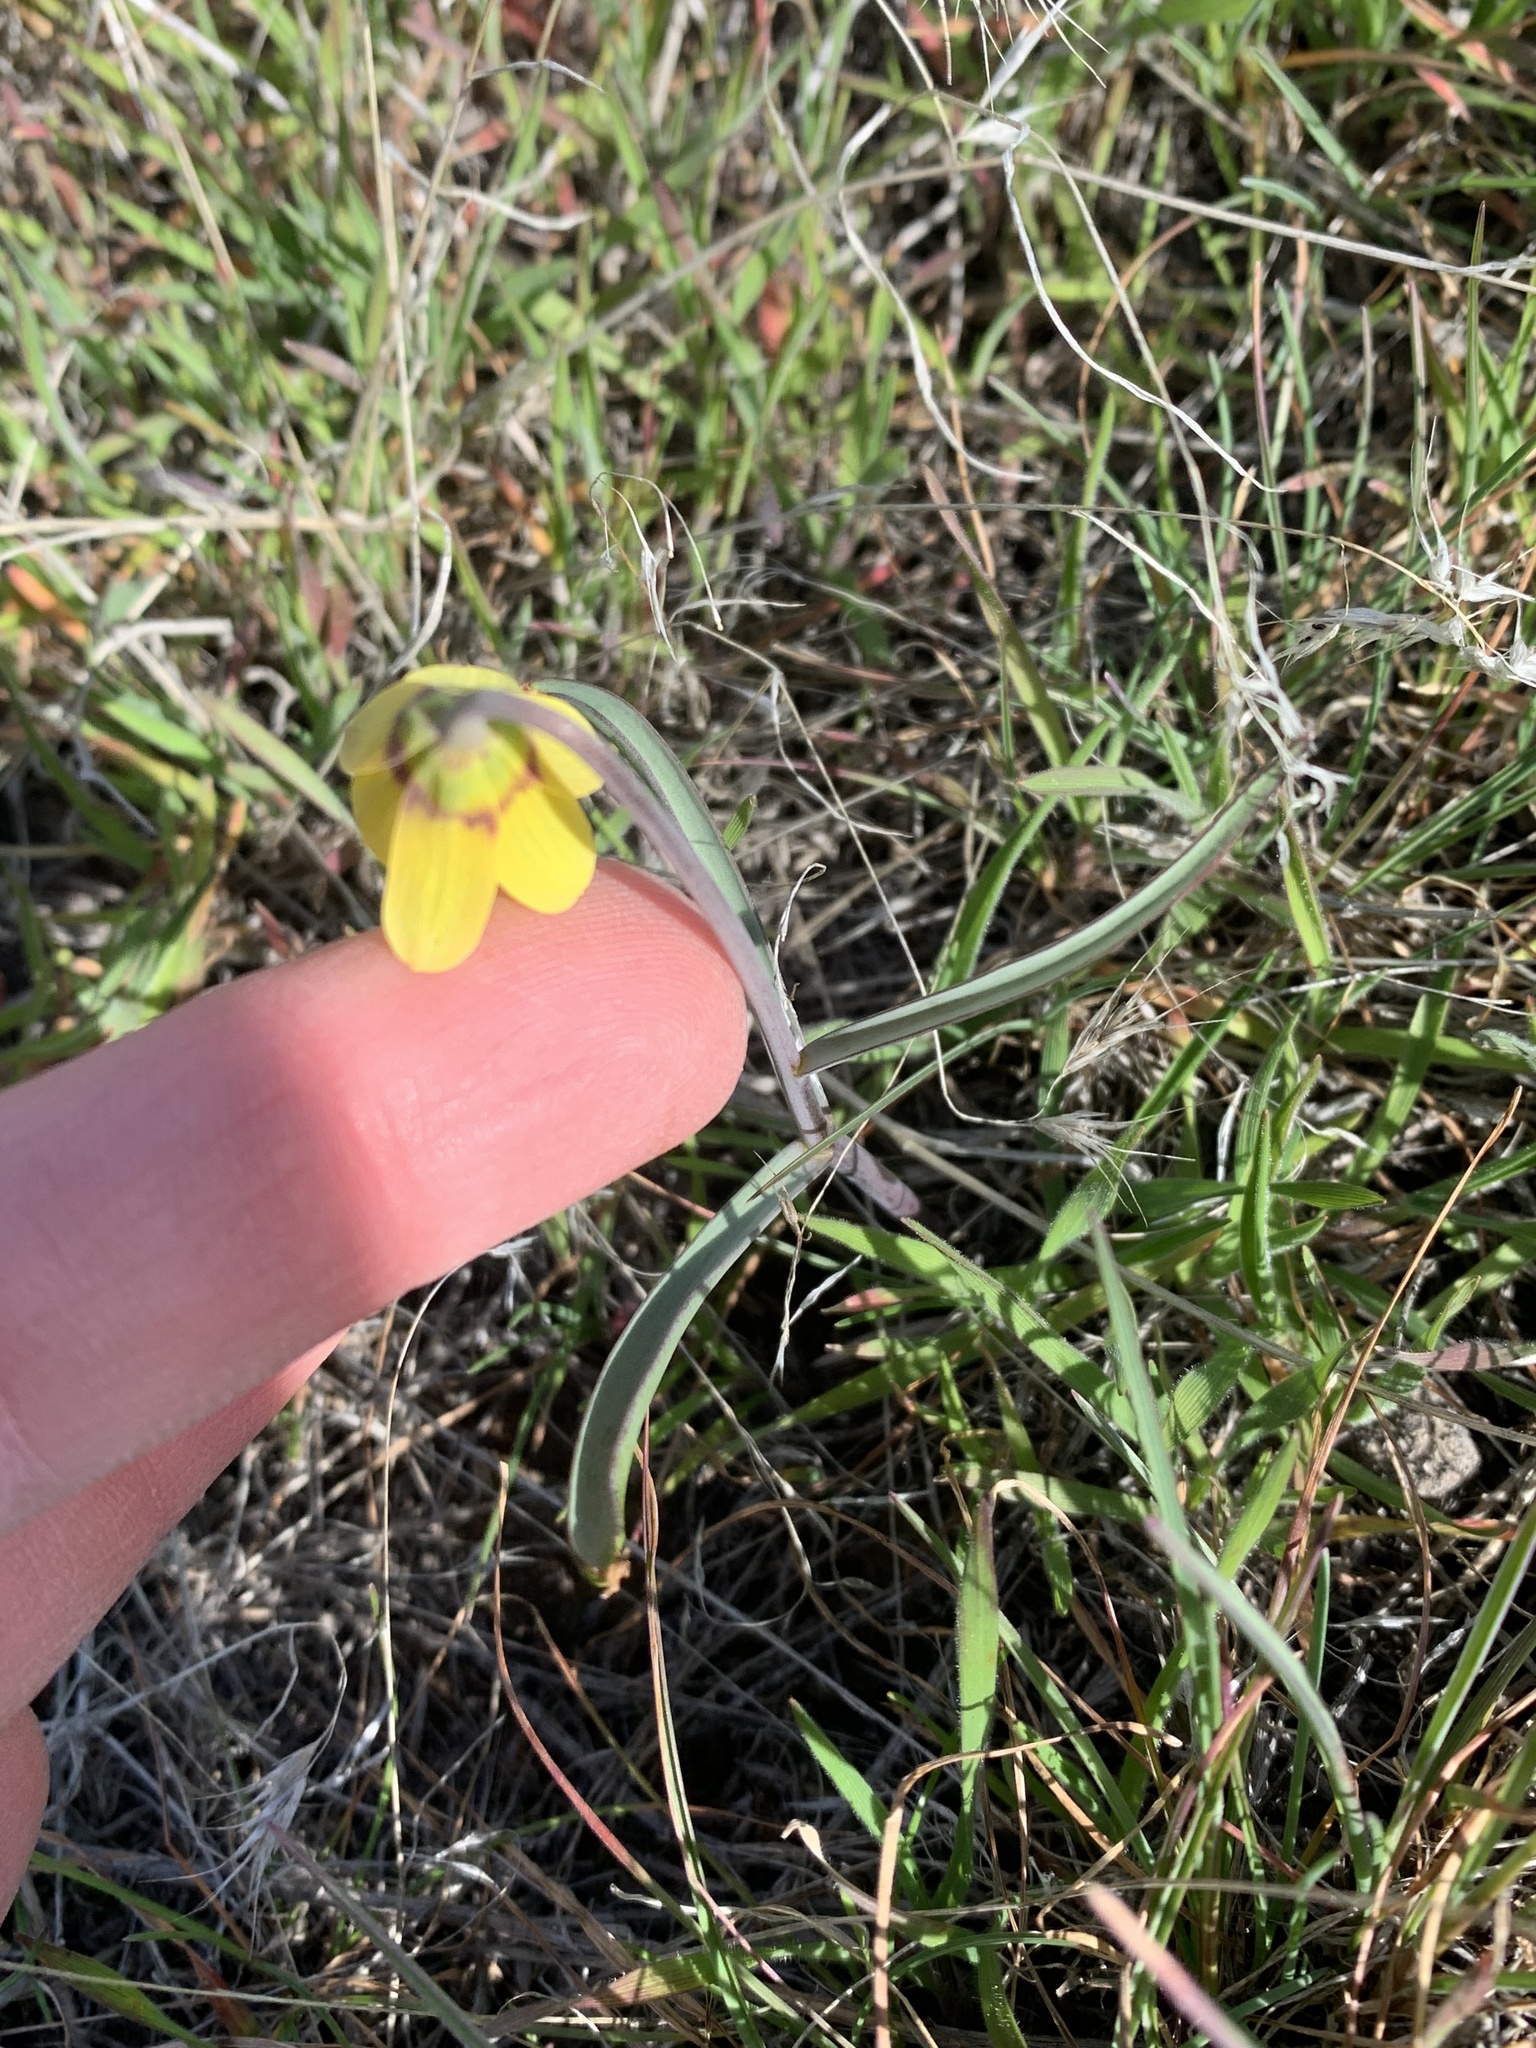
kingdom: Plantae
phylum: Tracheophyta
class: Liliopsida
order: Liliales
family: Liliaceae
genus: Fritillaria
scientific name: Fritillaria pudica
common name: Yellow fritillary
